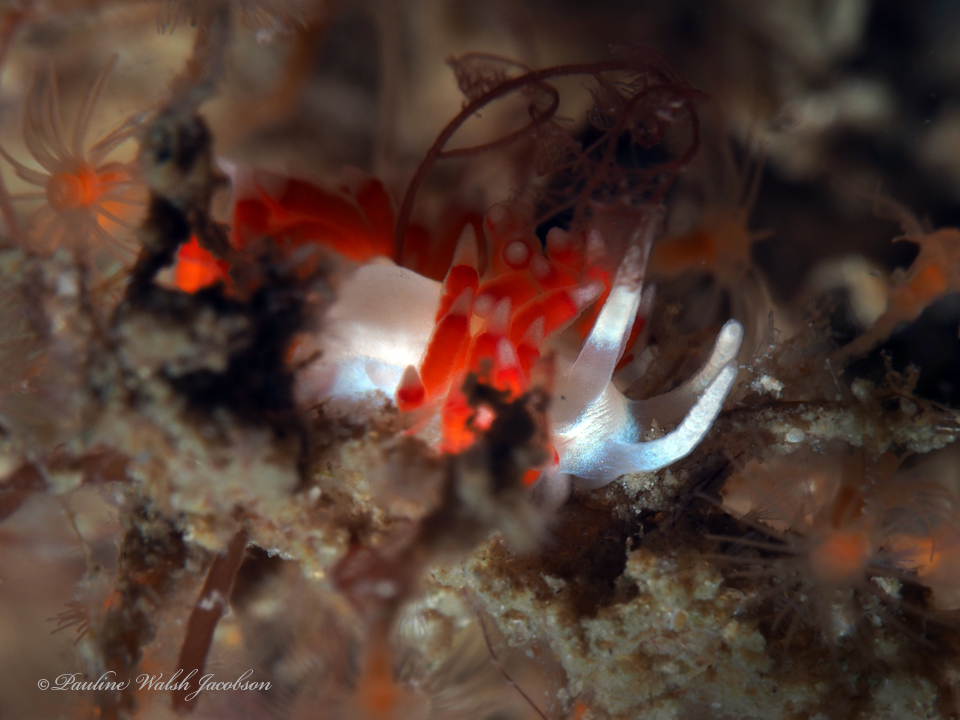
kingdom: Animalia
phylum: Mollusca
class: Gastropoda
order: Nudibranchia
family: Flabellinidae
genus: Flabellina
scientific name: Flabellina dushia
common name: Dushia flabellina
